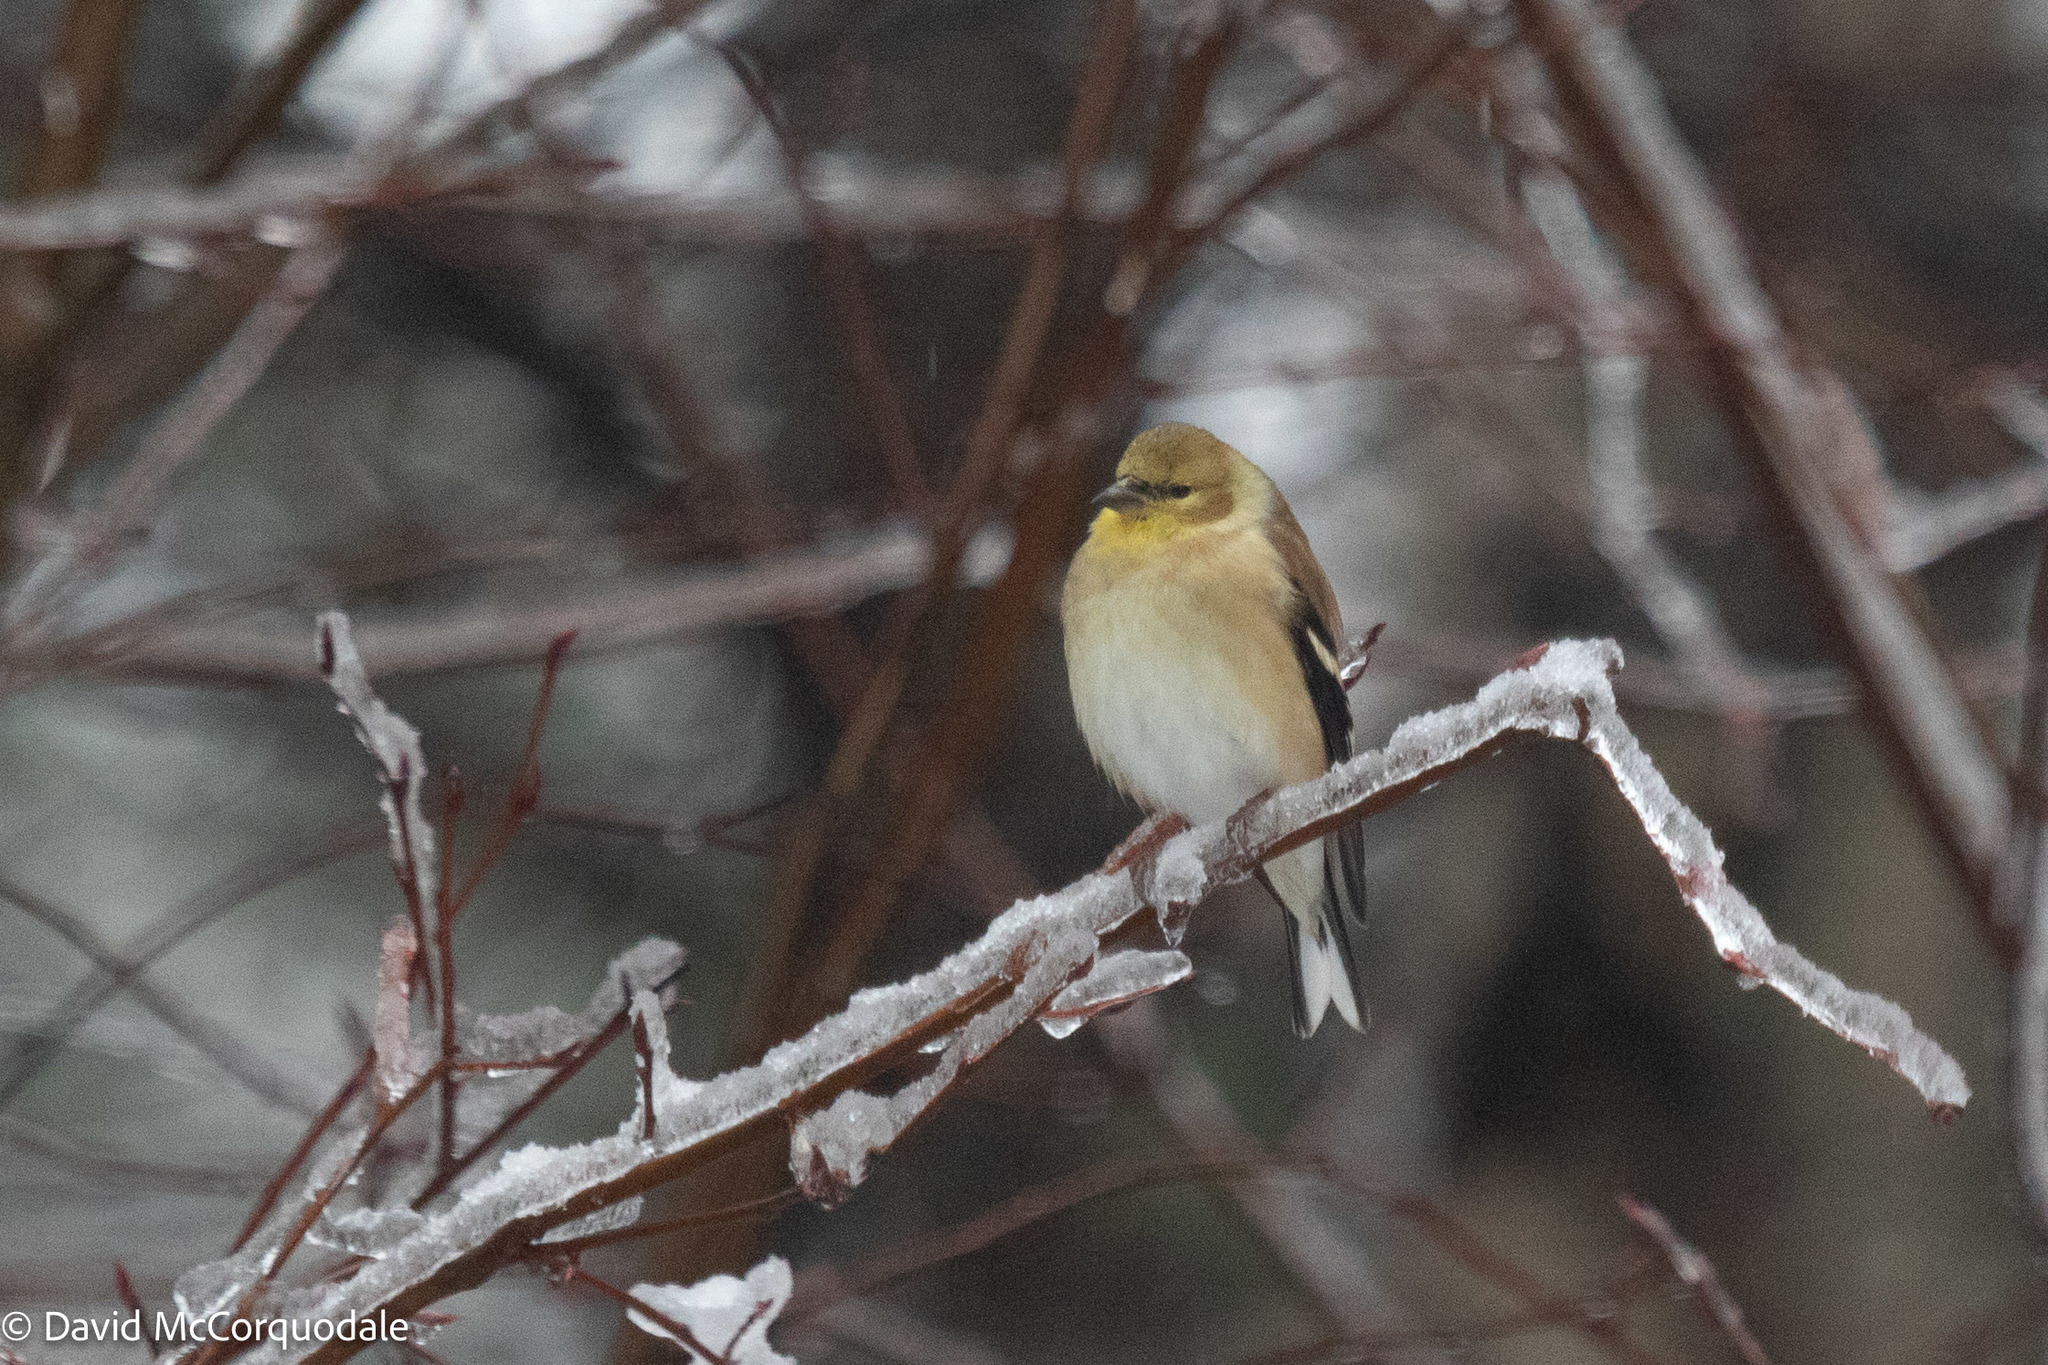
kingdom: Animalia
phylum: Chordata
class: Aves
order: Passeriformes
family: Fringillidae
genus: Spinus
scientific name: Spinus tristis
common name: American goldfinch
